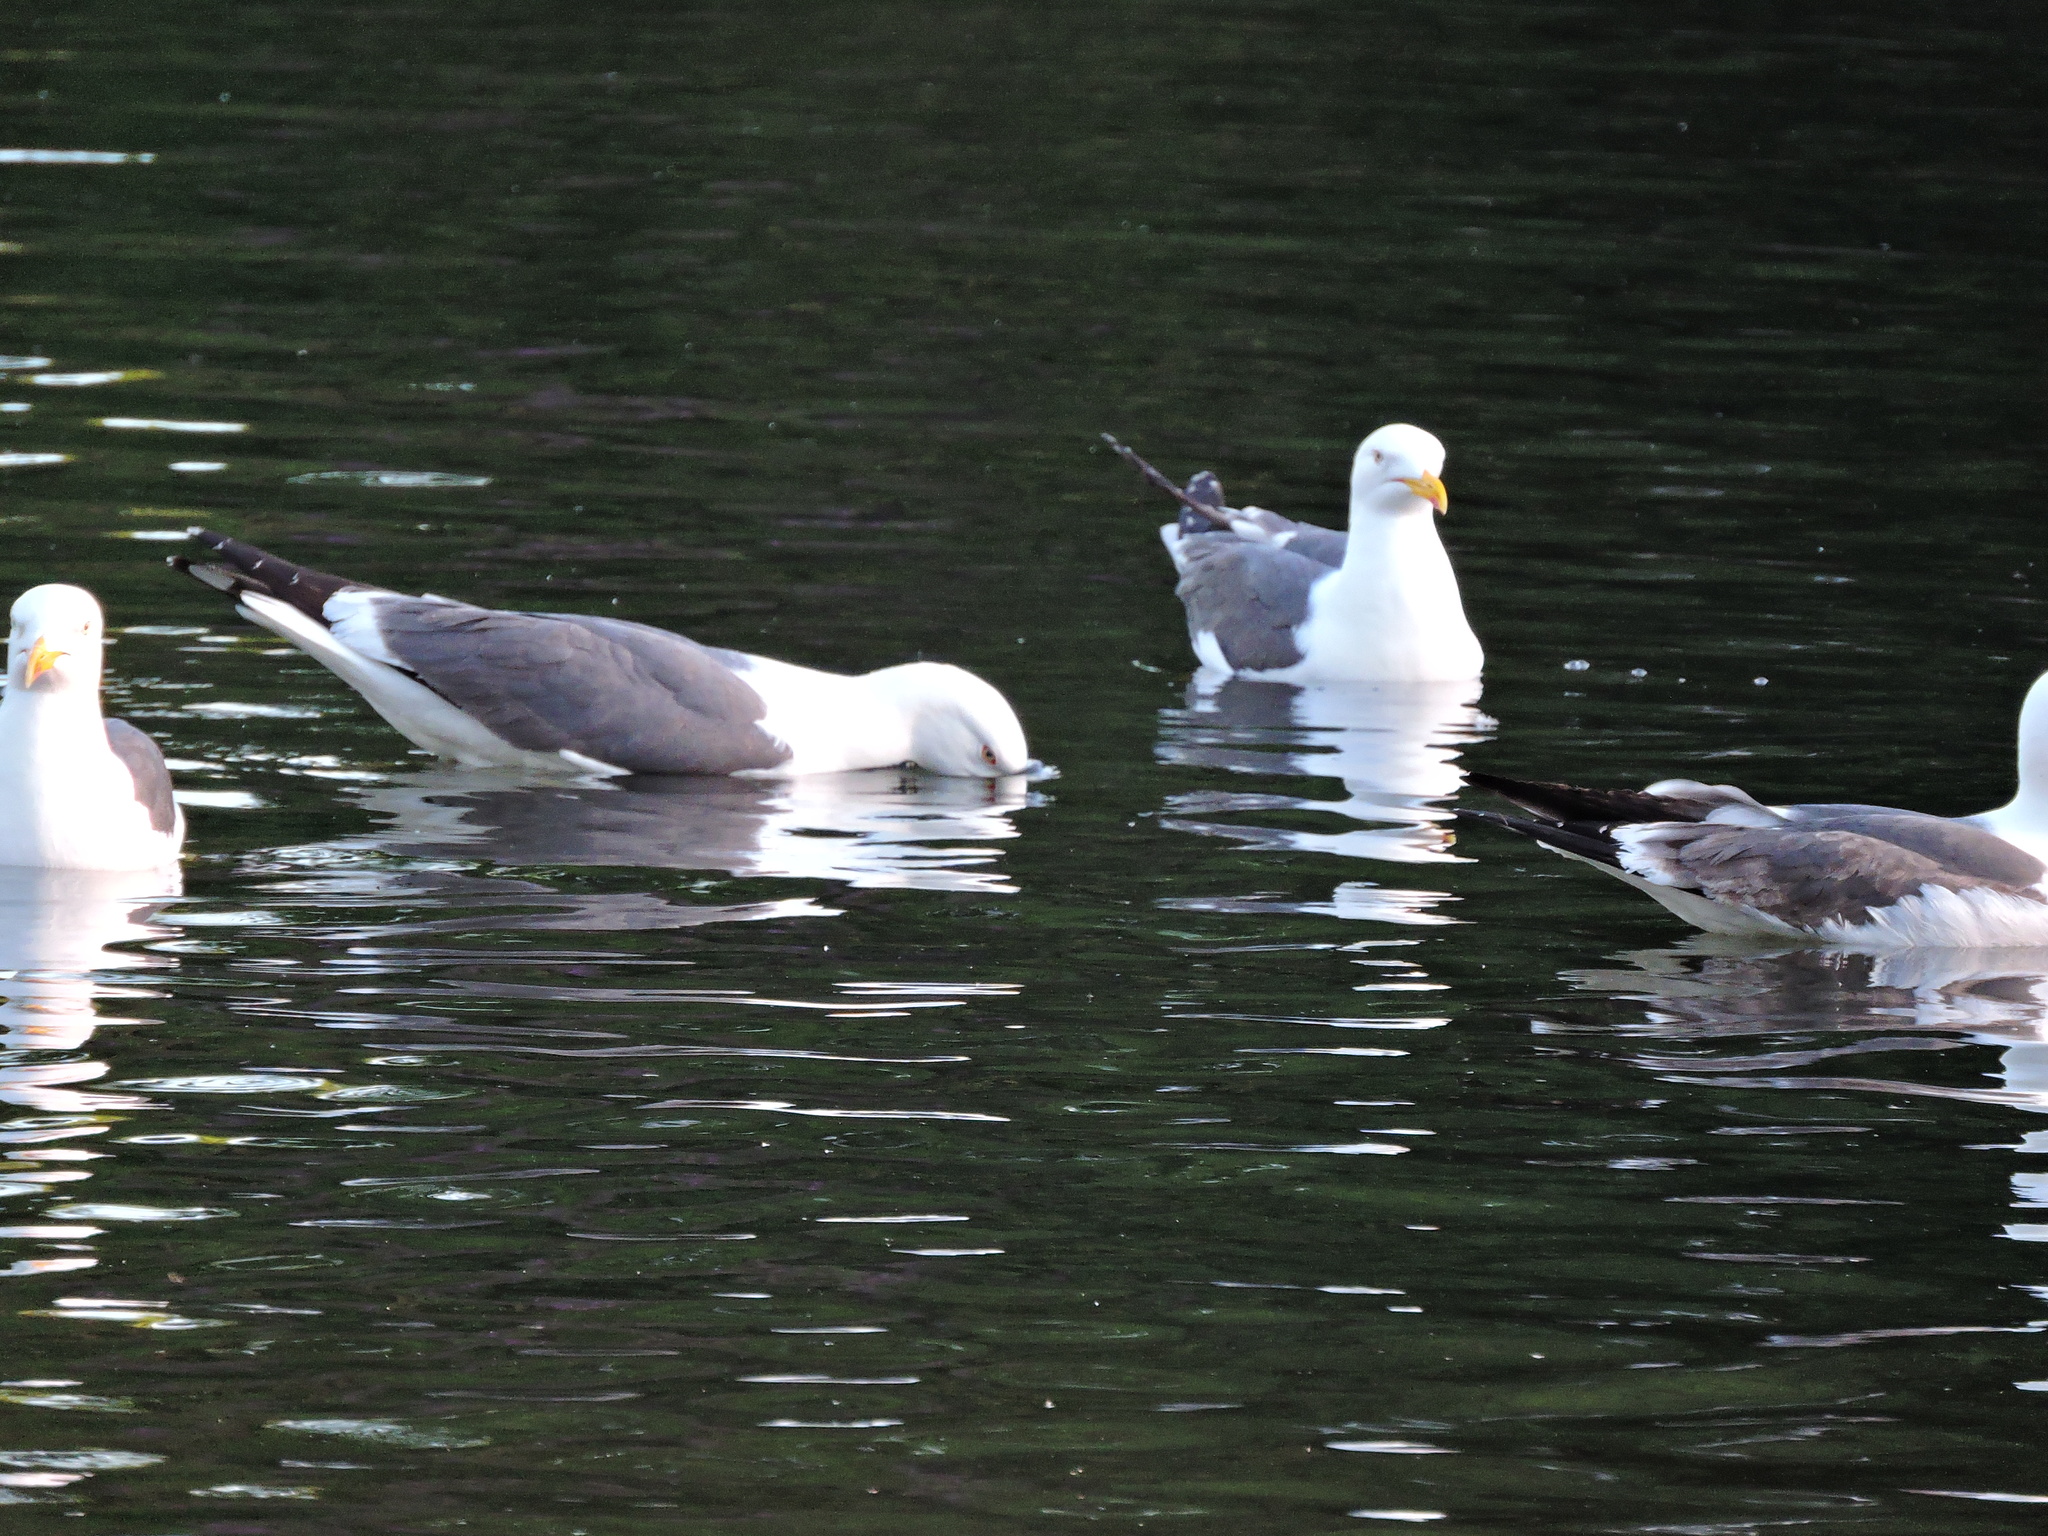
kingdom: Animalia
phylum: Chordata
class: Aves
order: Charadriiformes
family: Laridae
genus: Larus
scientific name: Larus fuscus
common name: Lesser black-backed gull
